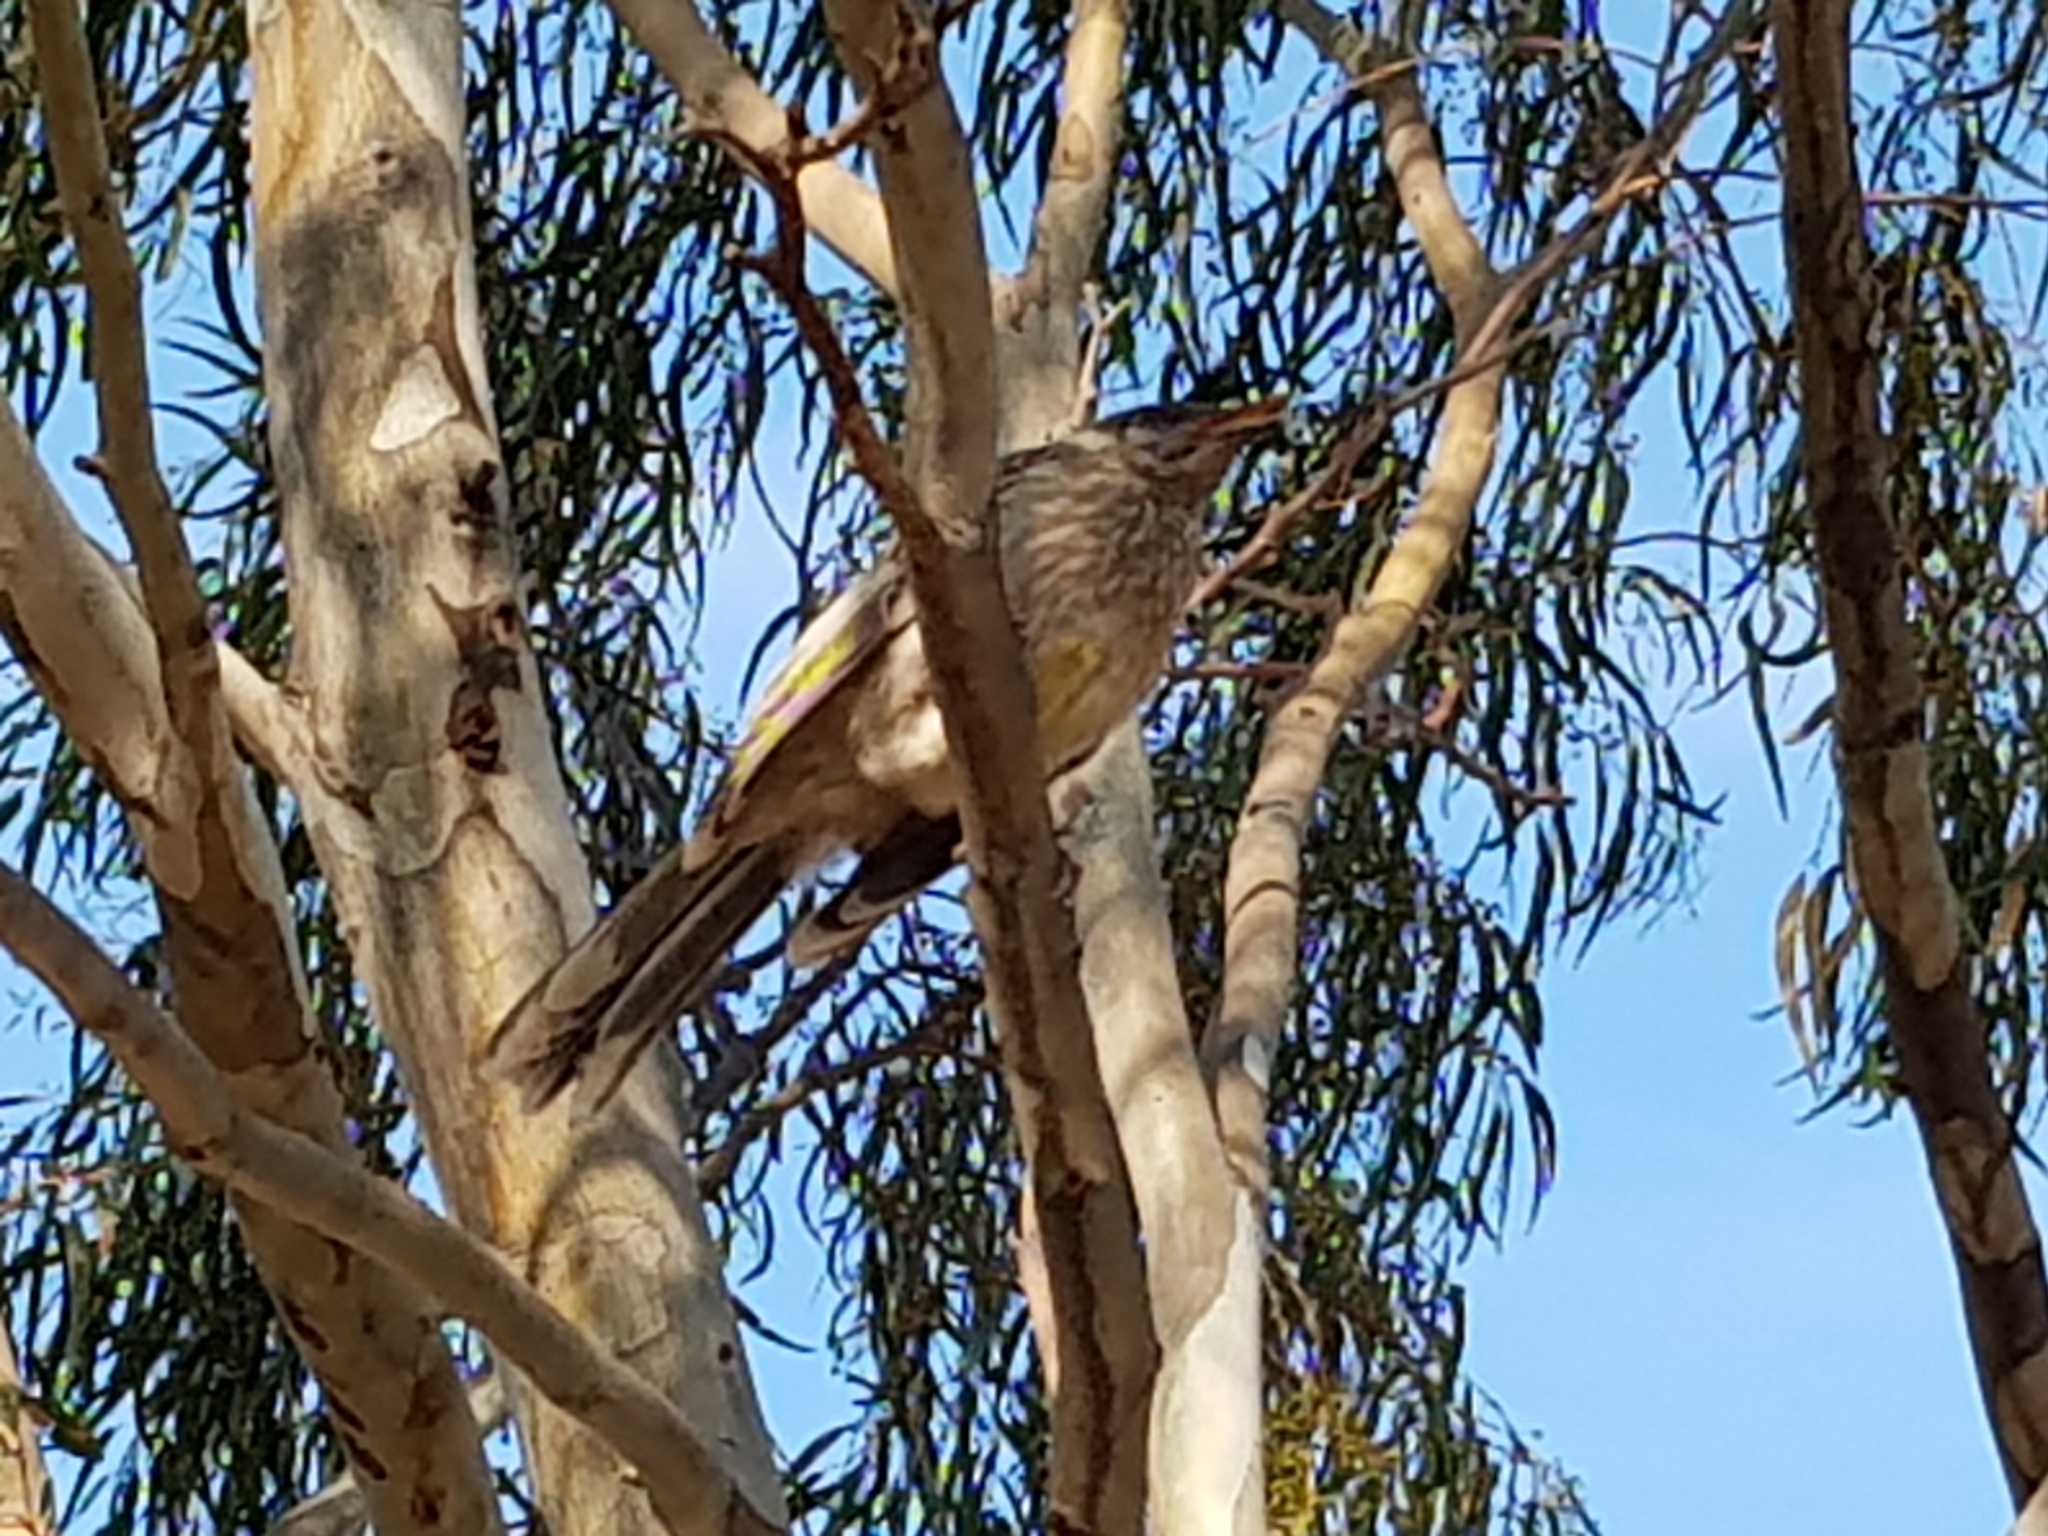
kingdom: Animalia
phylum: Chordata
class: Aves
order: Passeriformes
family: Meliphagidae
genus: Anthochaera
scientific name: Anthochaera carunculata
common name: Red wattlebird
